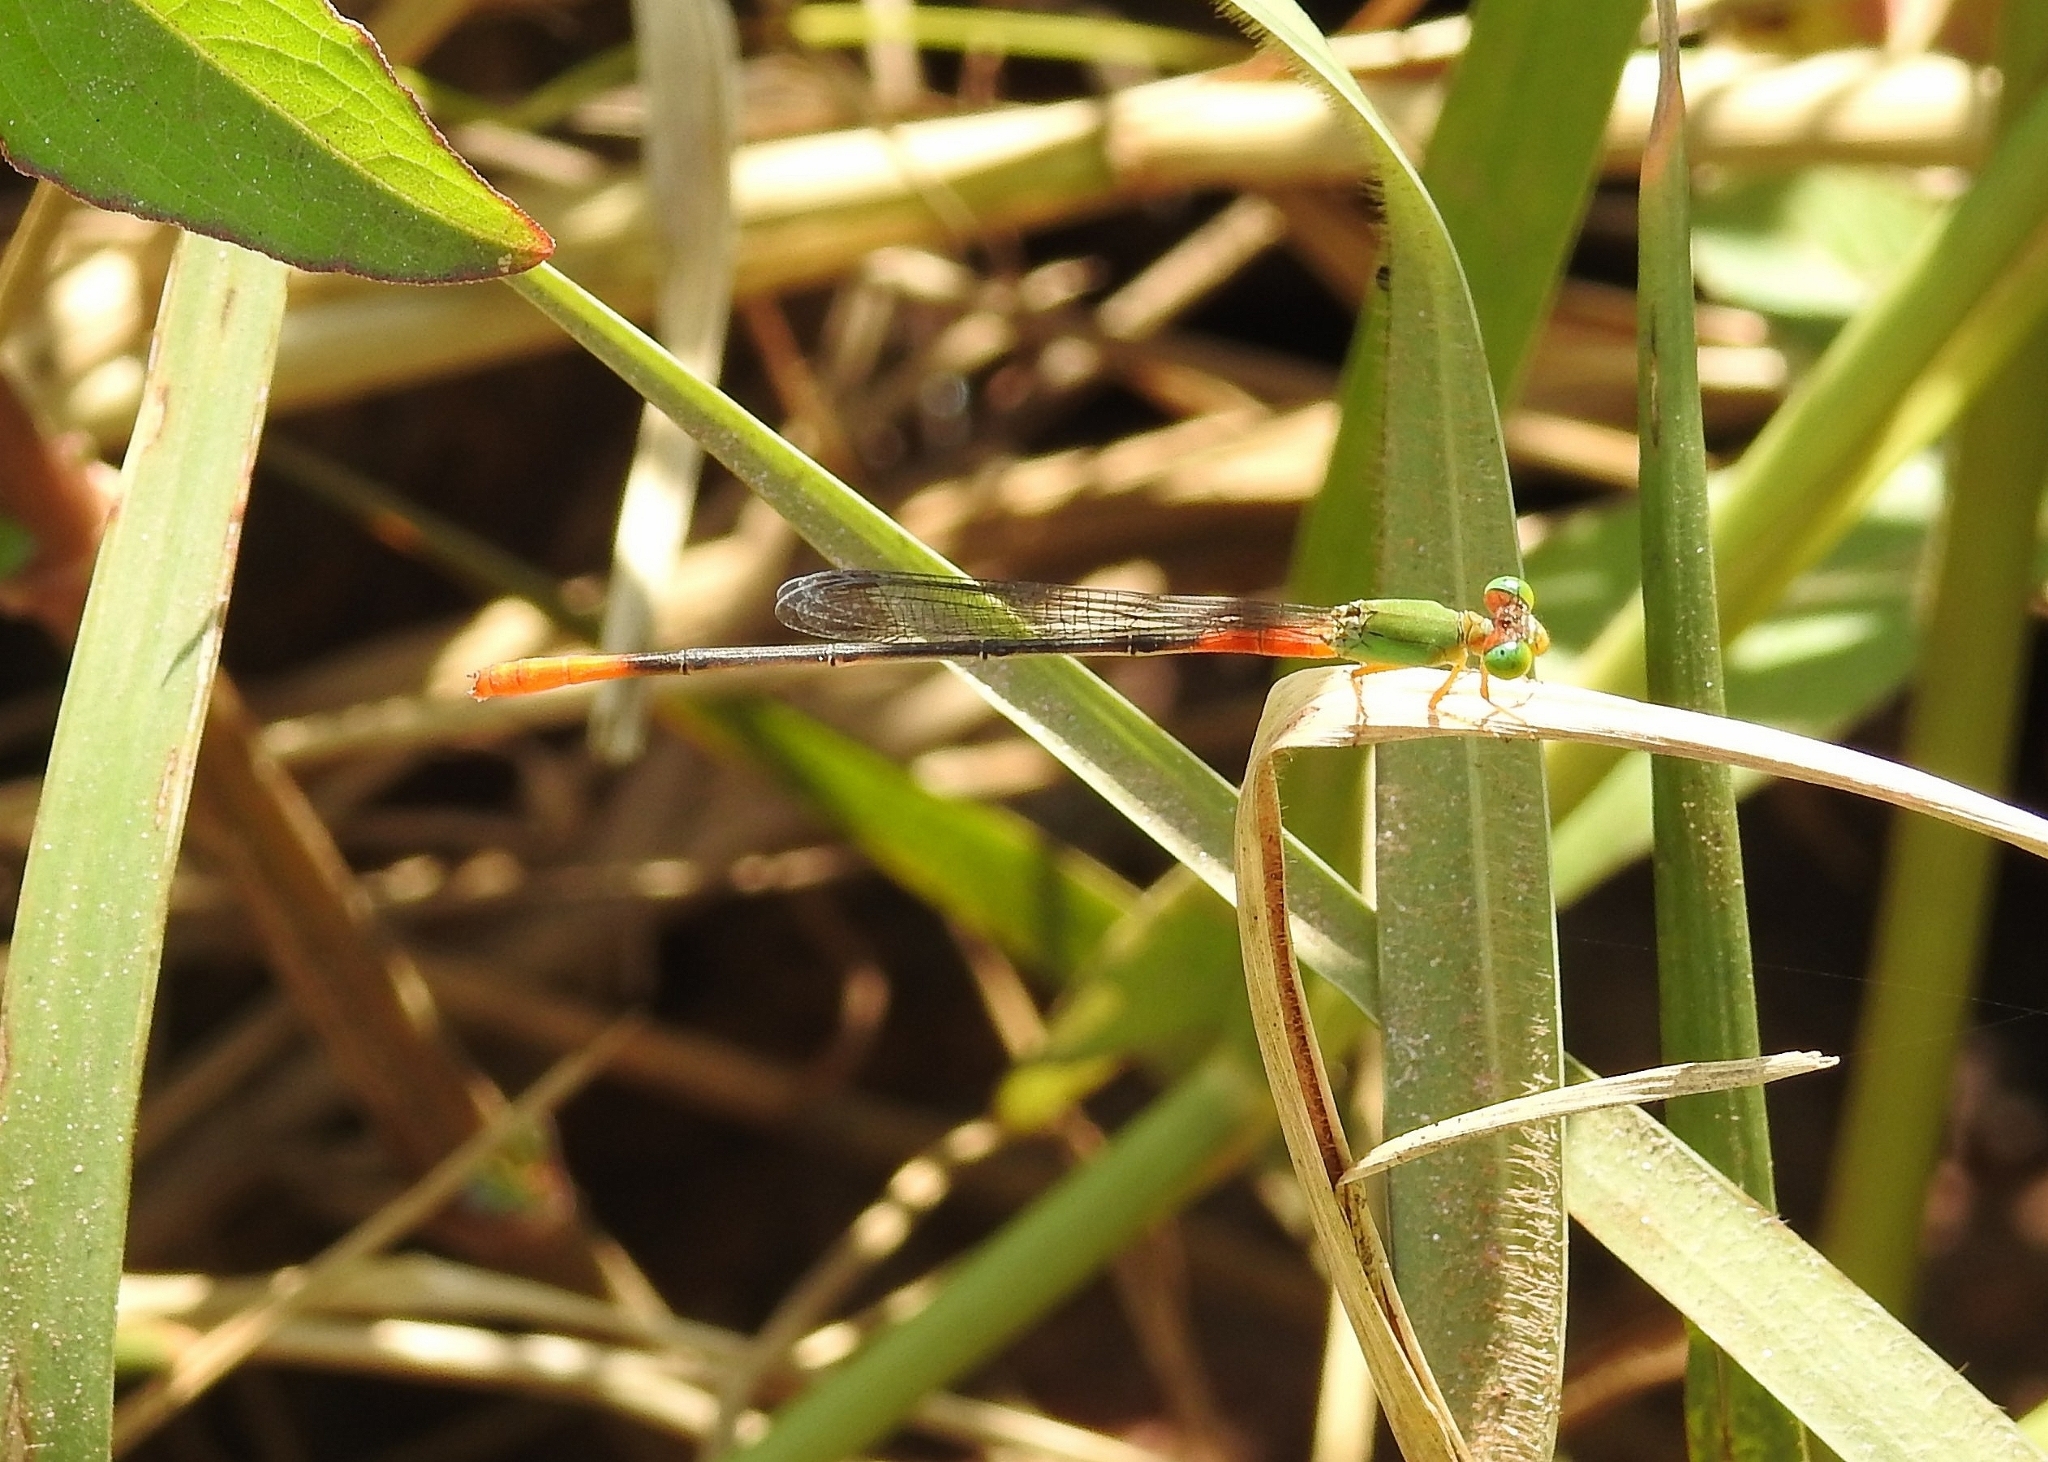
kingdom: Animalia
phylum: Arthropoda
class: Insecta
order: Odonata
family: Coenagrionidae
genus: Ceriagrion
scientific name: Ceriagrion cerinorubellum
